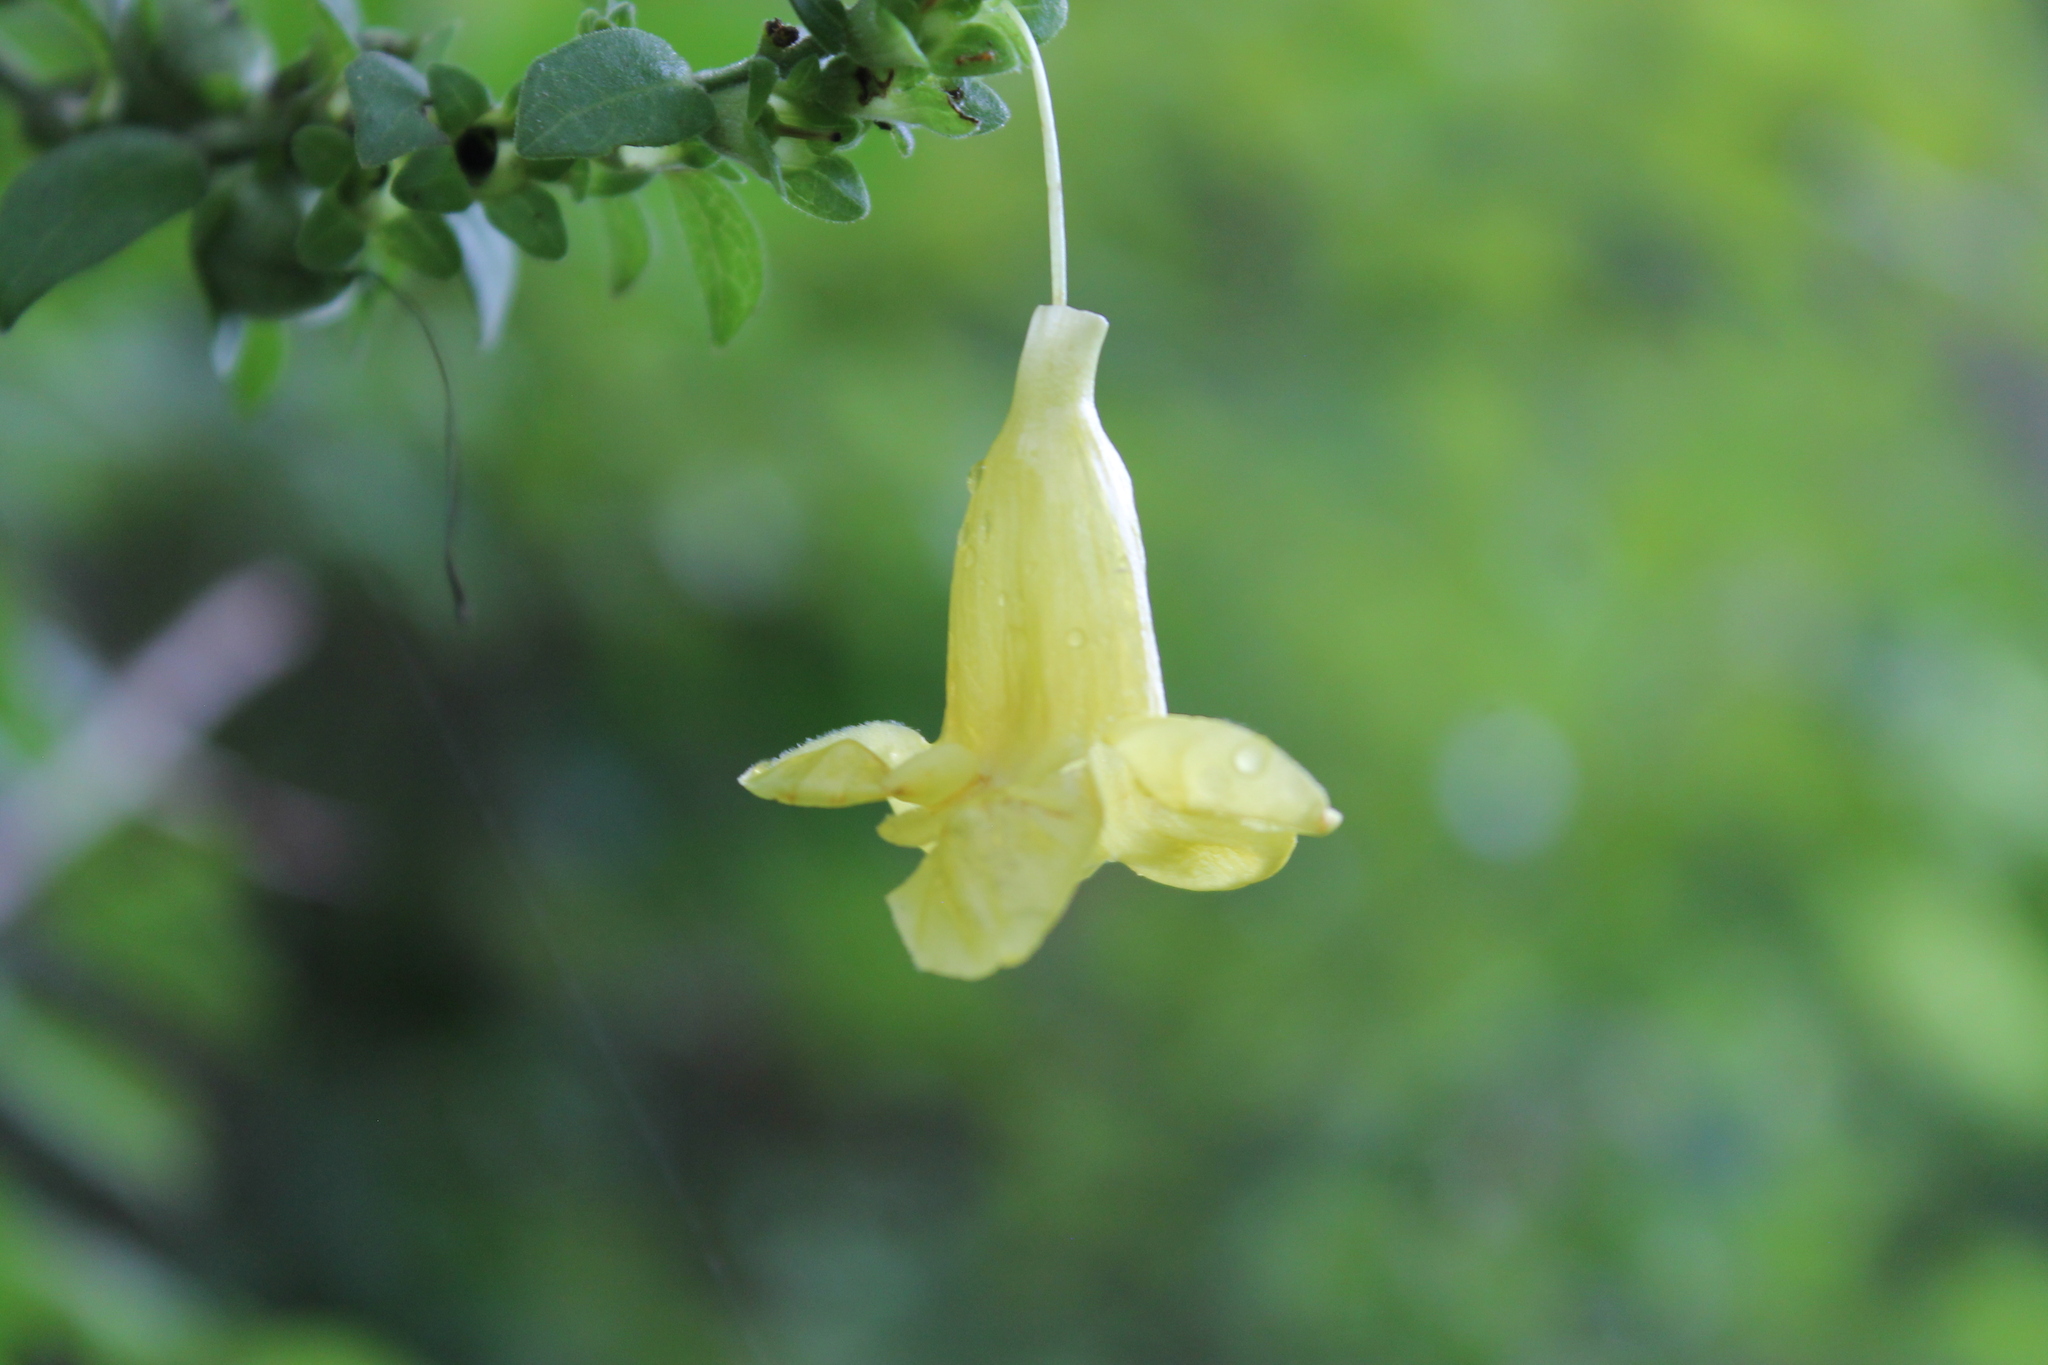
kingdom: Plantae
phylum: Tracheophyta
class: Magnoliopsida
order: Lamiales
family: Orobanchaceae
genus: Aureolaria
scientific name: Aureolaria virginica
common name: Downy false foxglove
